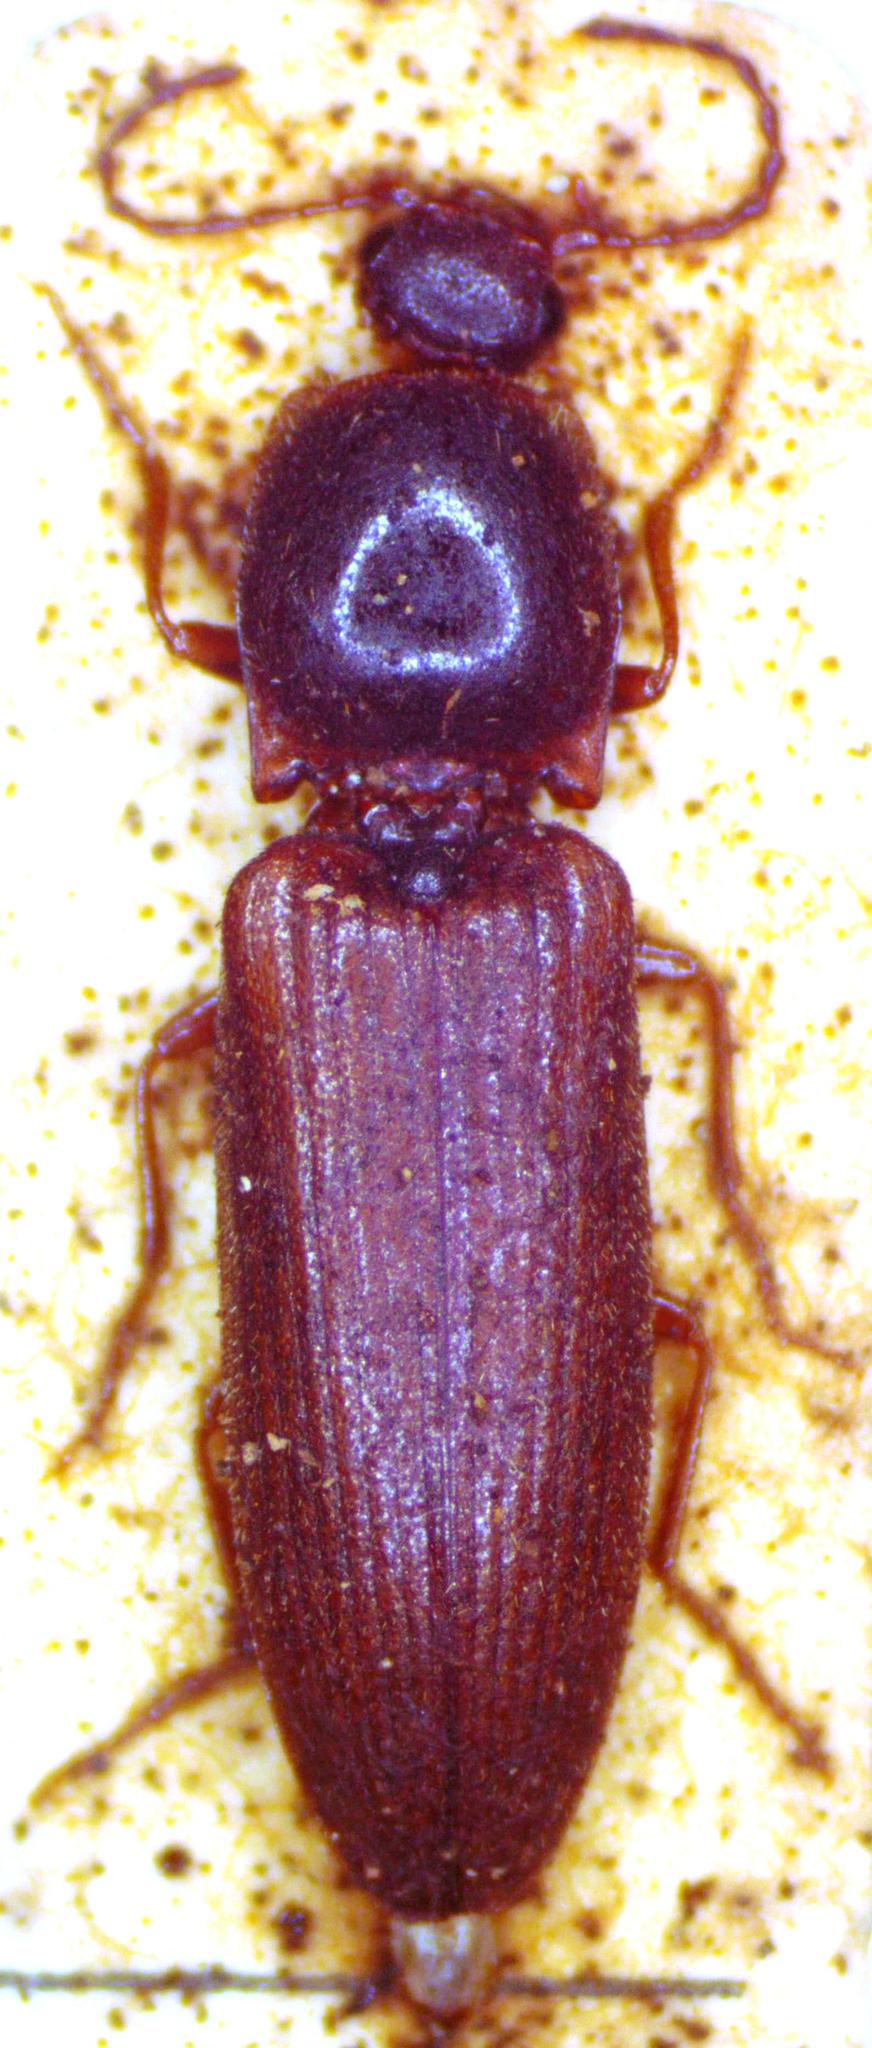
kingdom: Animalia
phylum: Arthropoda
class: Insecta
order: Coleoptera
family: Elateridae
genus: Athous
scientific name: Athous subfuscus
